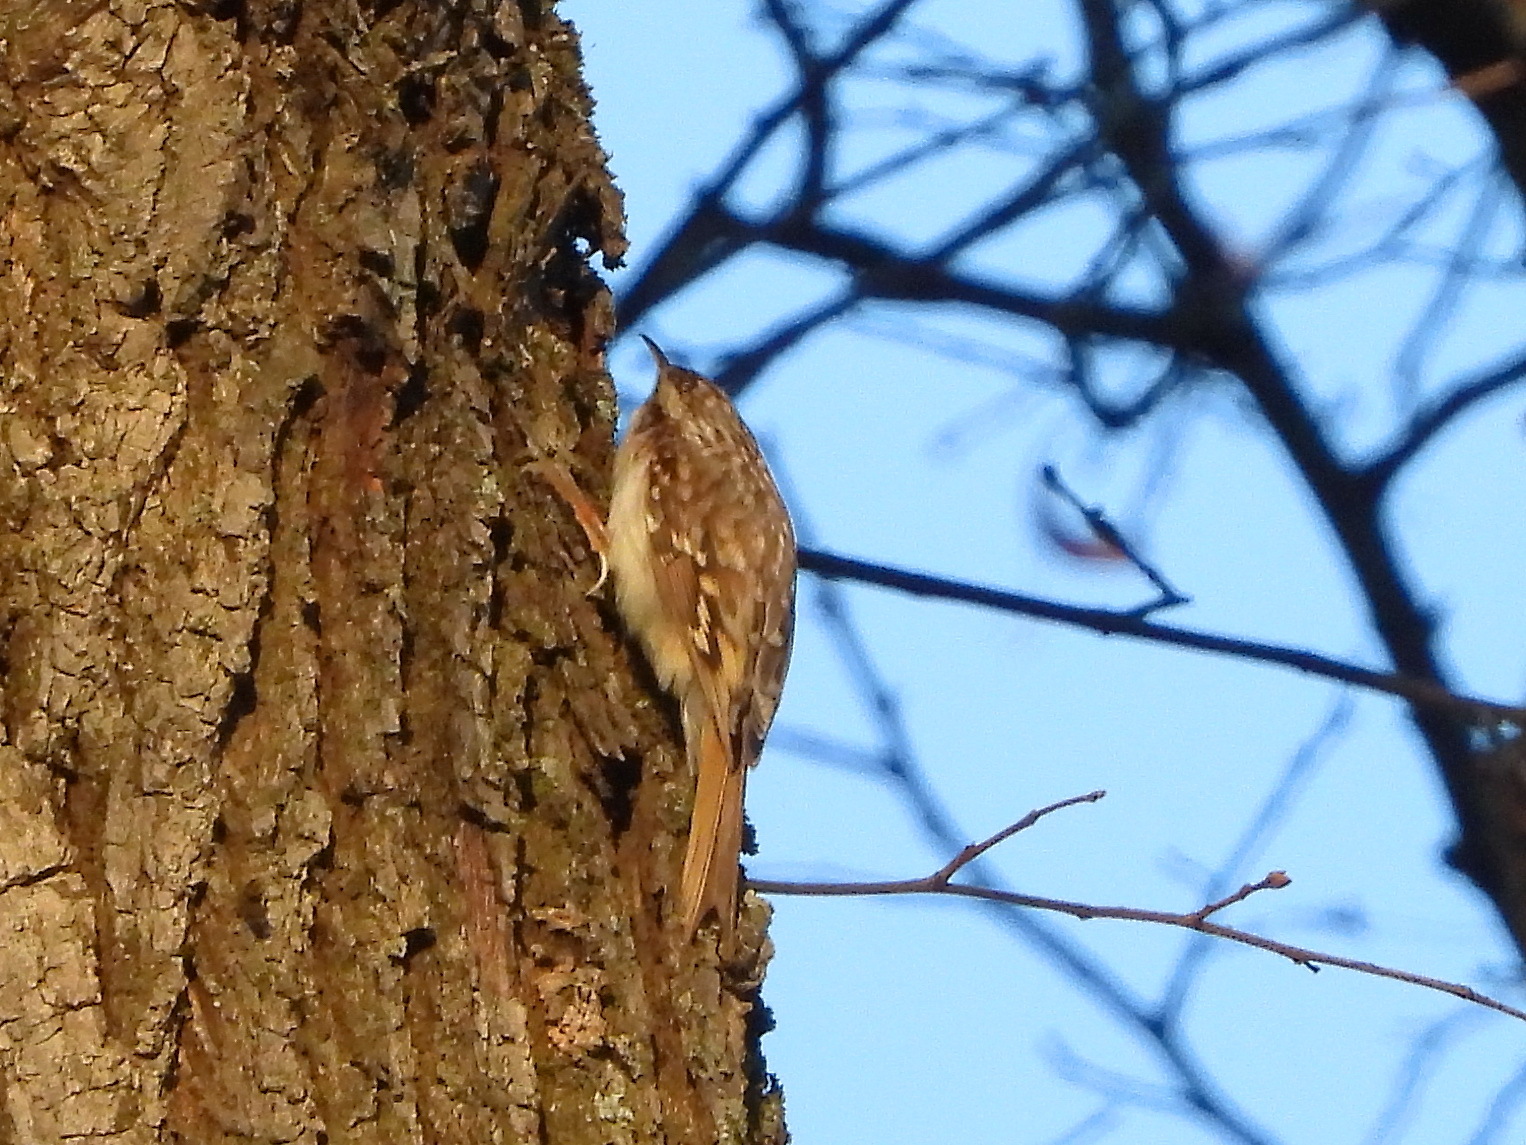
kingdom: Animalia
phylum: Chordata
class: Aves
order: Passeriformes
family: Certhiidae
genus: Certhia
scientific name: Certhia familiaris
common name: Eurasian treecreeper
